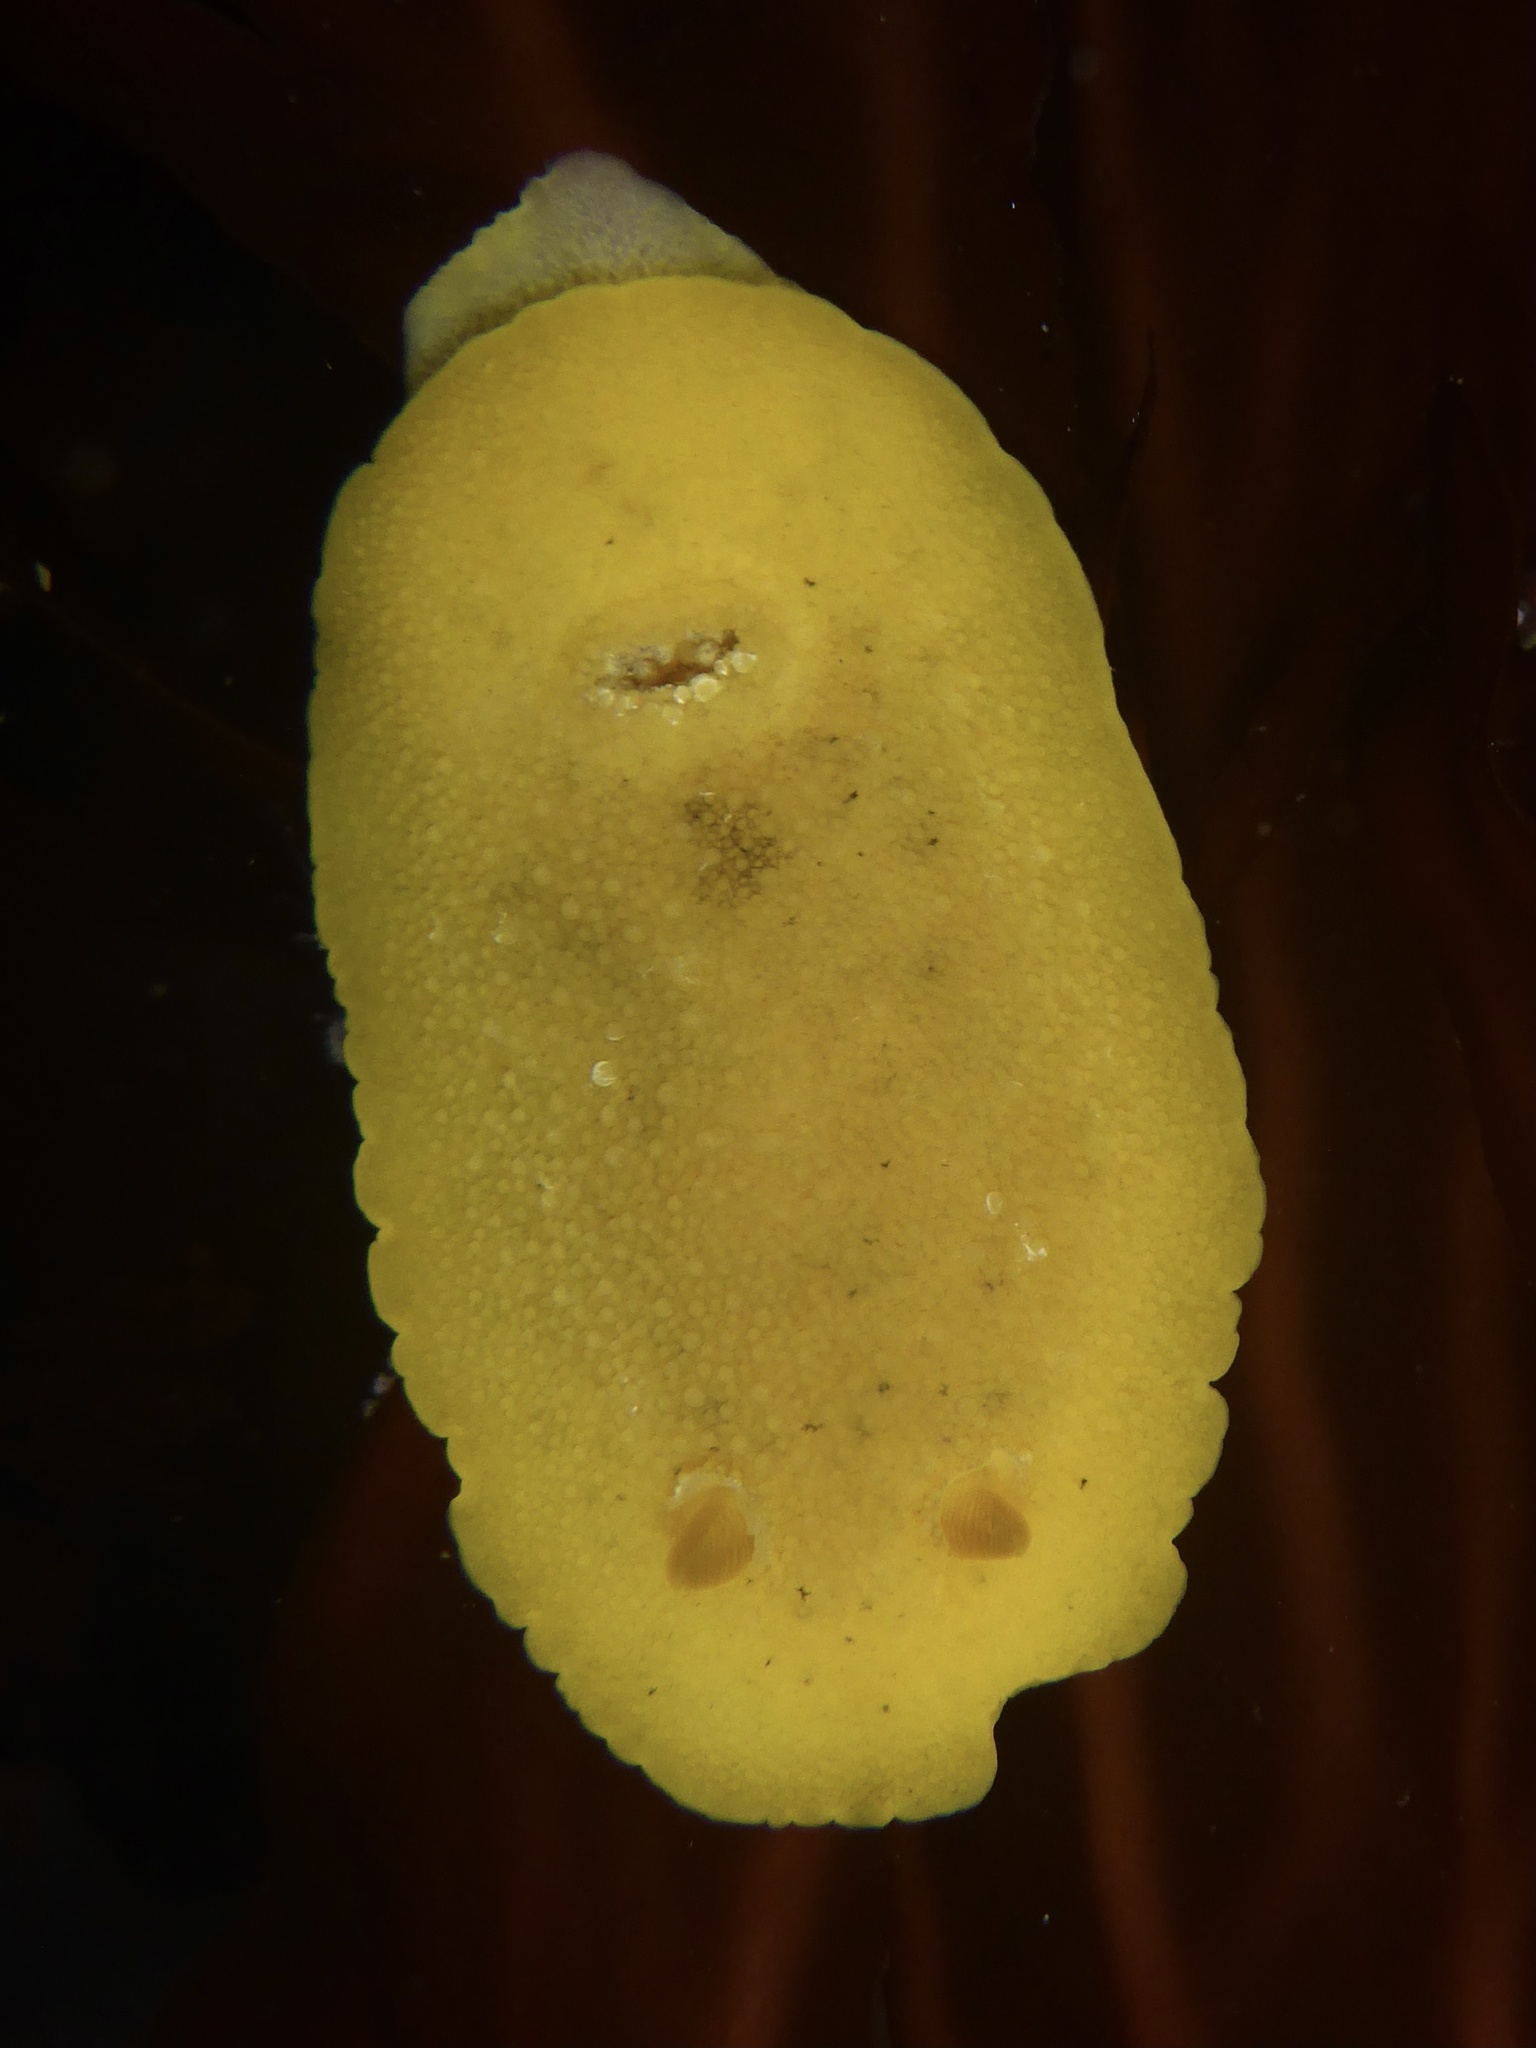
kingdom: Animalia
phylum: Mollusca
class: Gastropoda
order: Nudibranchia
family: Discodorididae
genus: Geitodoris
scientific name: Geitodoris heathi
